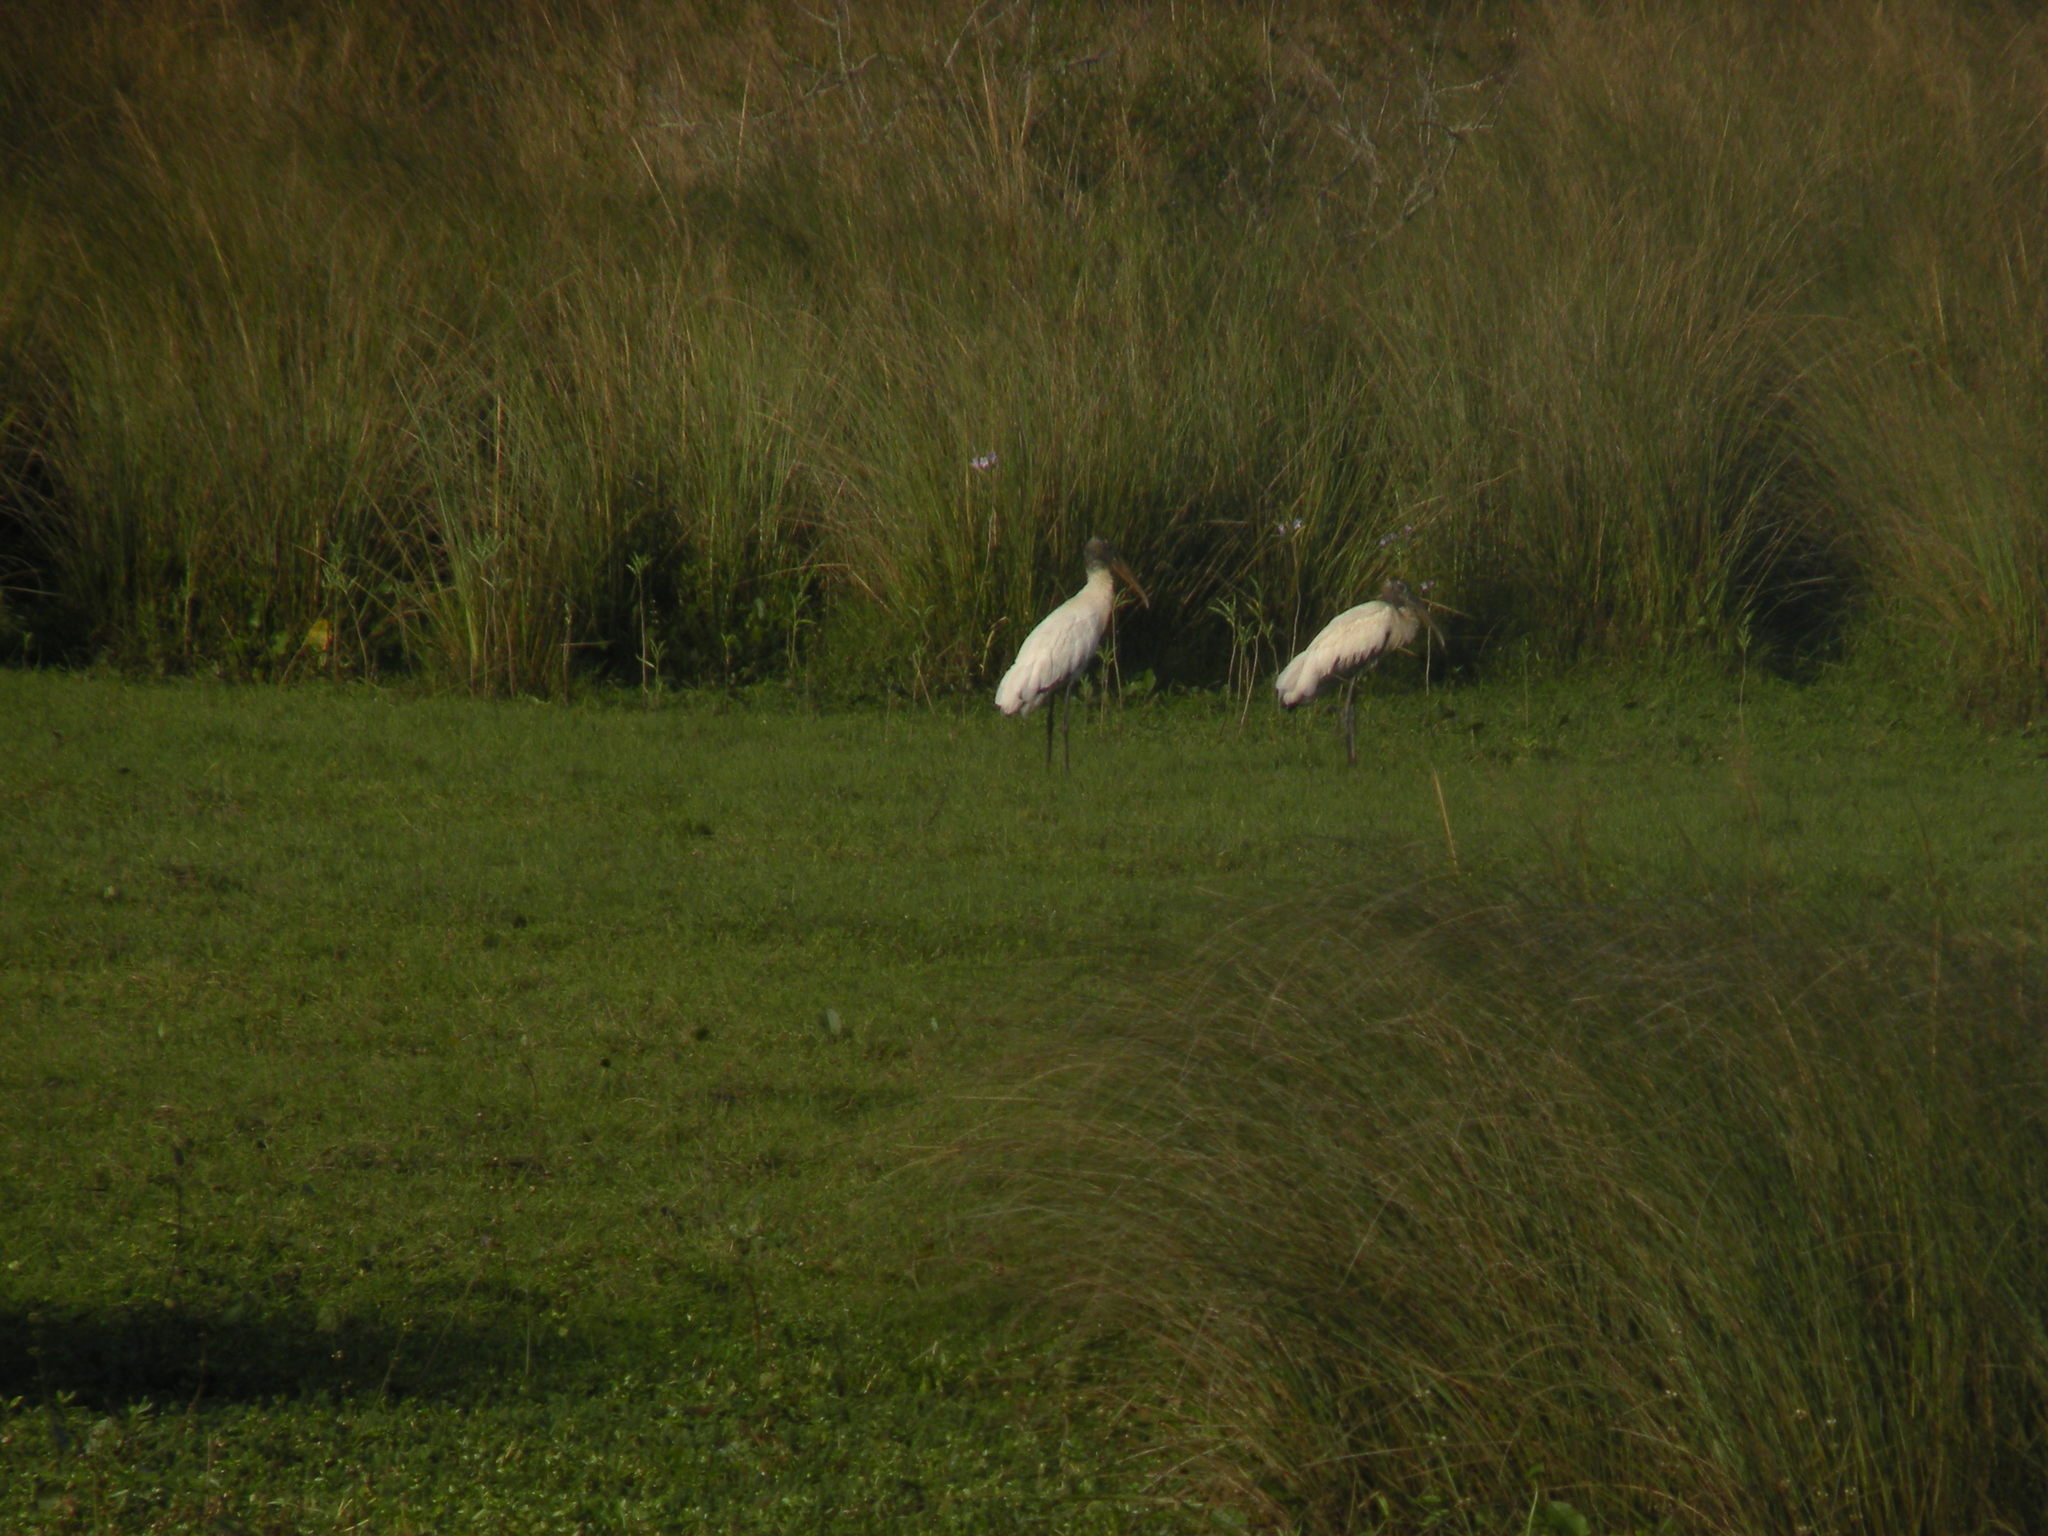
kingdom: Animalia
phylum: Chordata
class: Aves
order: Ciconiiformes
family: Ciconiidae
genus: Mycteria
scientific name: Mycteria americana
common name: Wood stork
